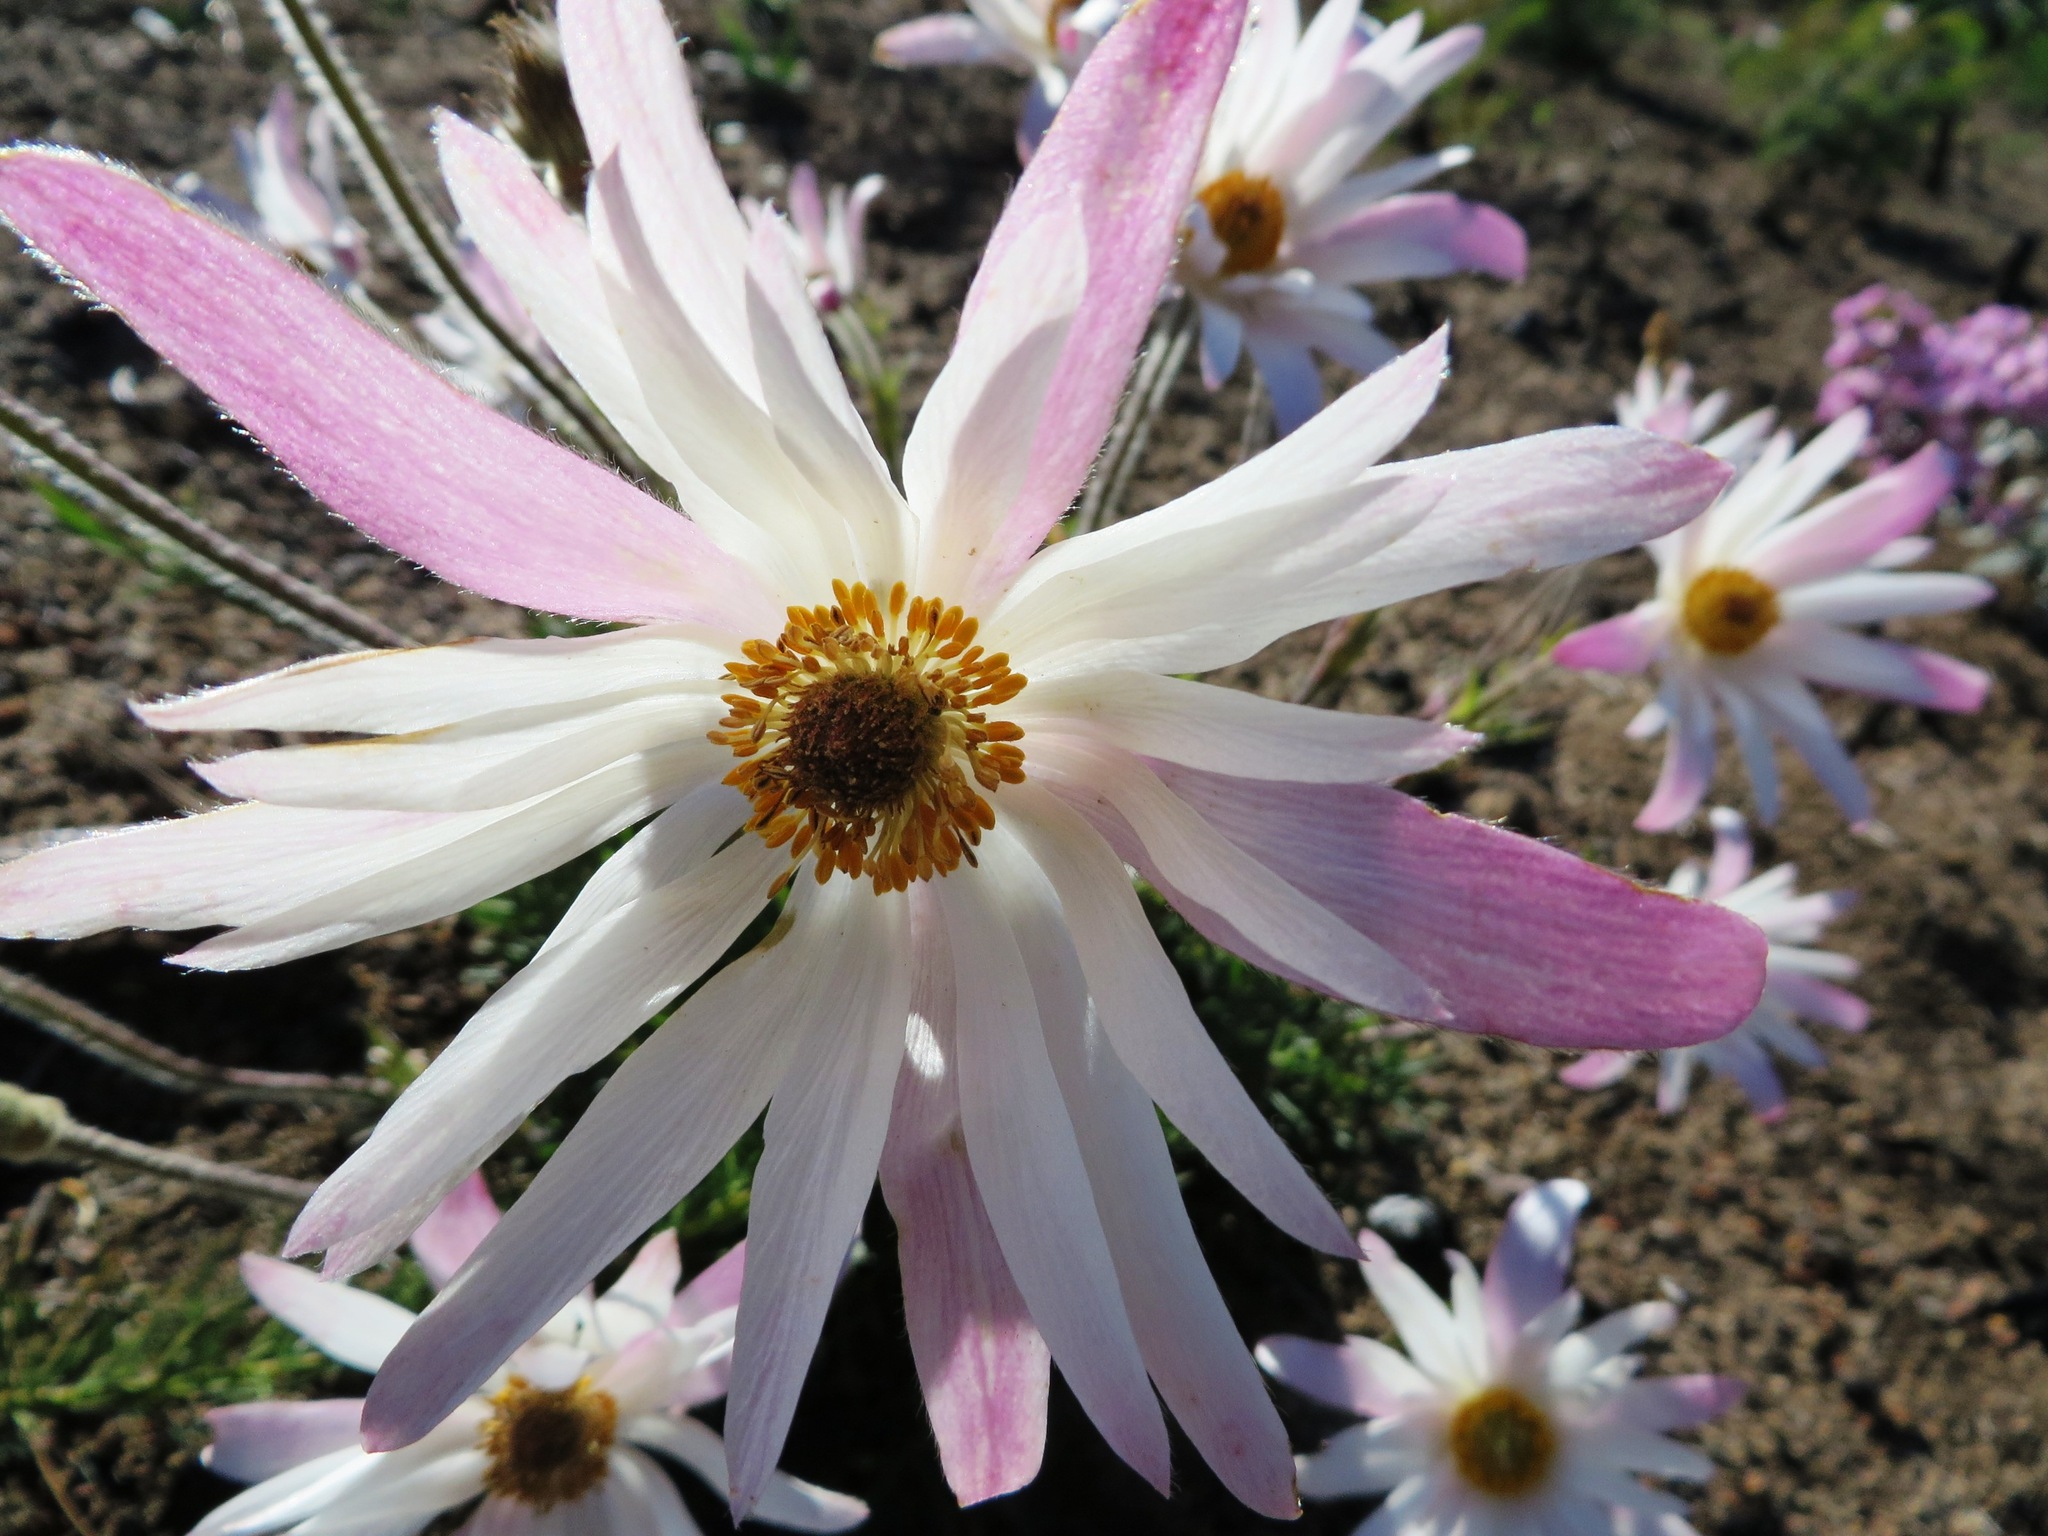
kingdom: Plantae
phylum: Tracheophyta
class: Magnoliopsida
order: Ranunculales
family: Ranunculaceae
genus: Knowltonia
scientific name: Knowltonia tenuifolia
